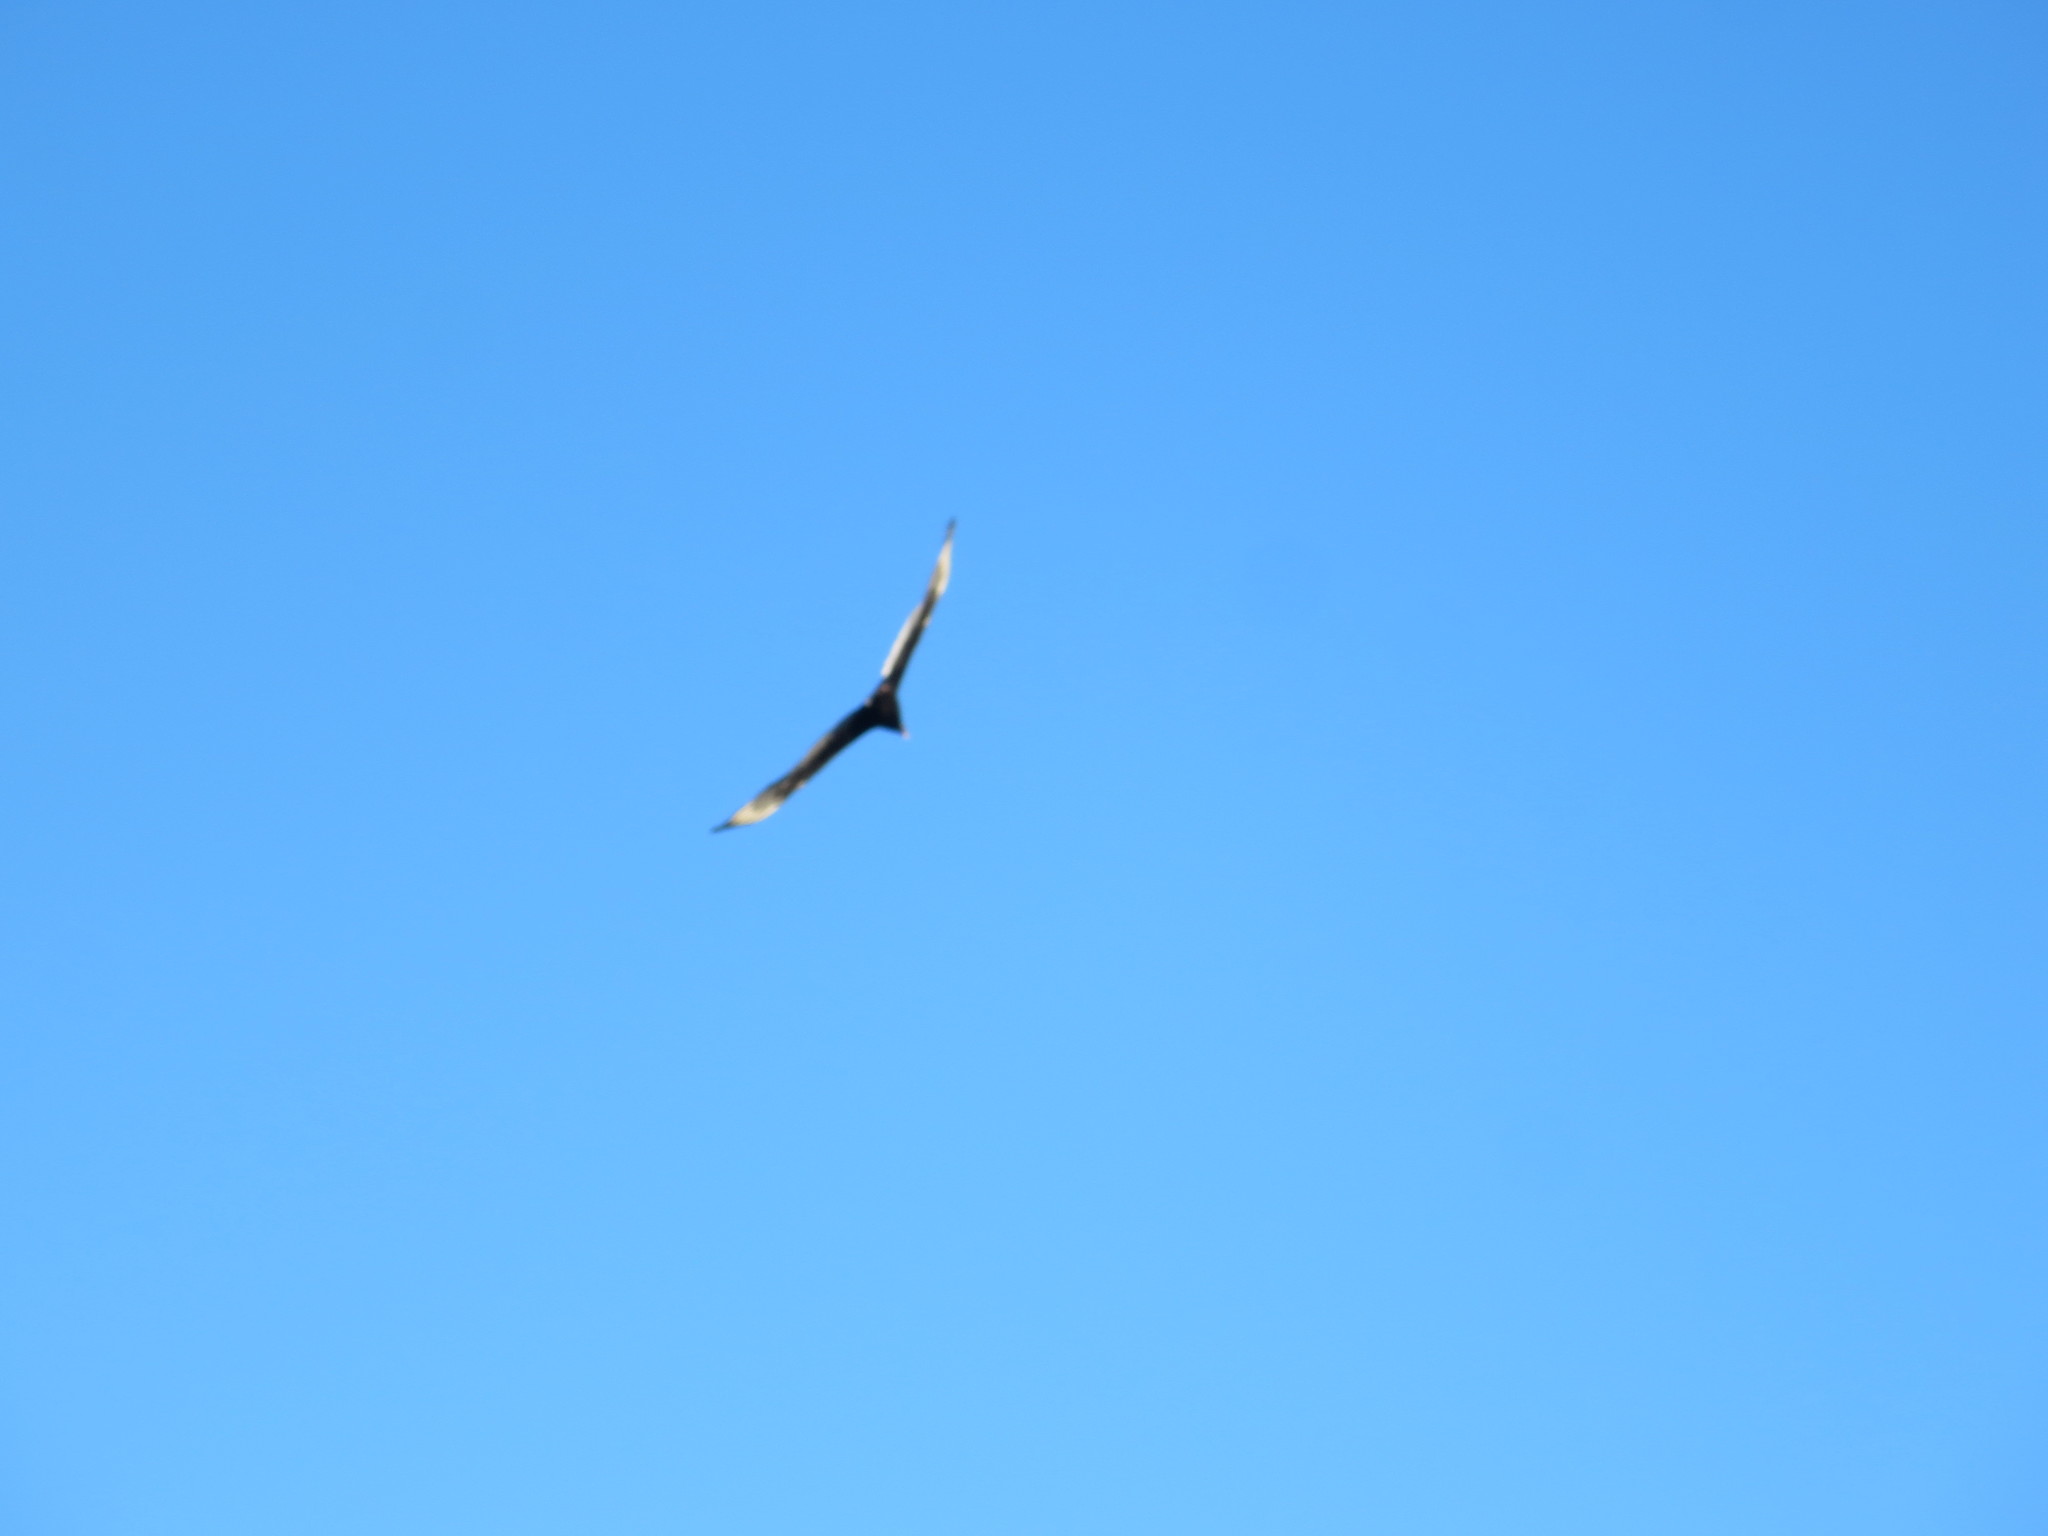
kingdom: Animalia
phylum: Chordata
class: Aves
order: Accipitriformes
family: Cathartidae
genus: Cathartes
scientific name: Cathartes aura
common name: Turkey vulture
